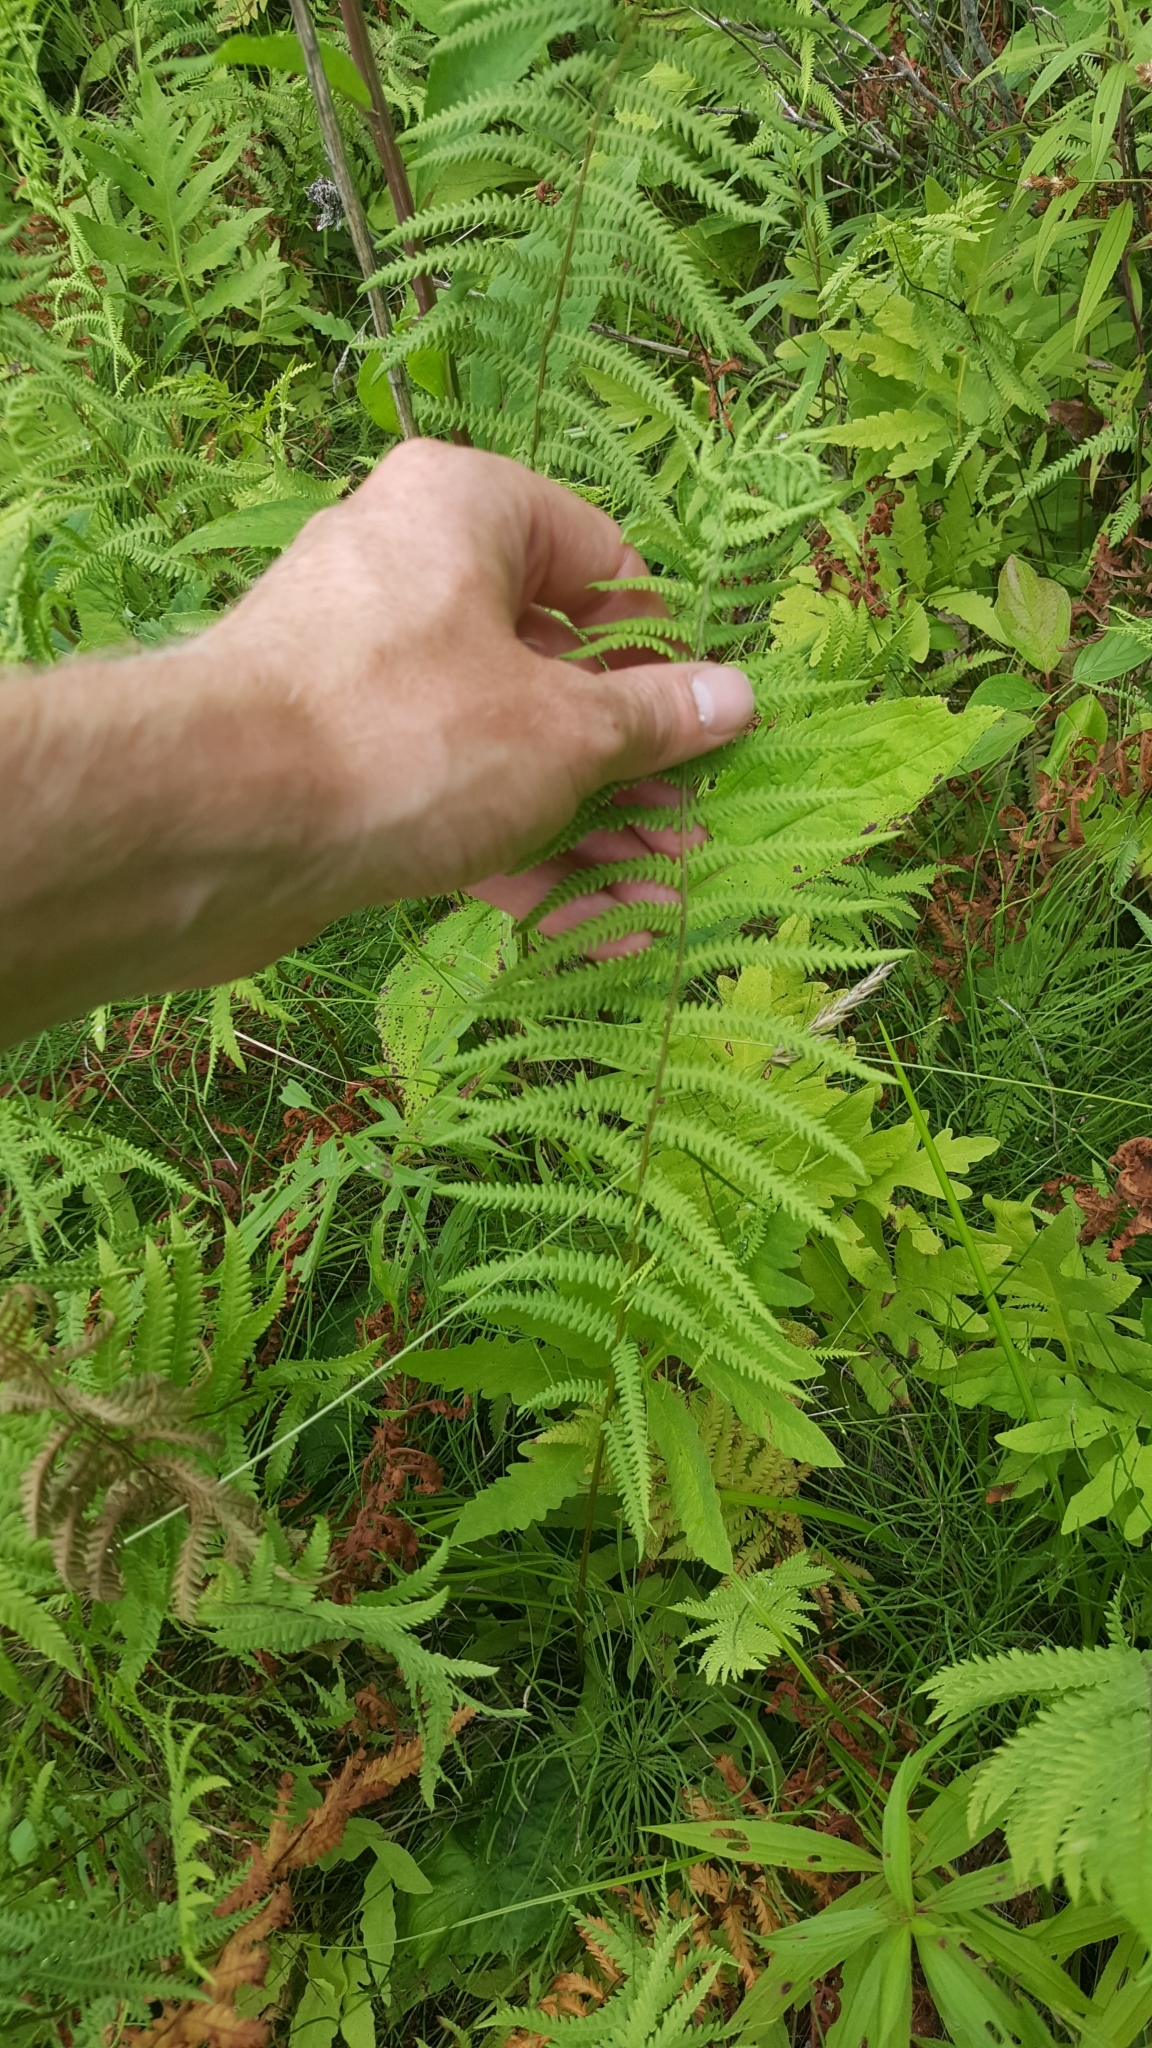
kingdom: Plantae
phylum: Tracheophyta
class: Polypodiopsida
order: Polypodiales
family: Thelypteridaceae
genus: Thelypteris
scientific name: Thelypteris palustris
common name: Marsh fern
